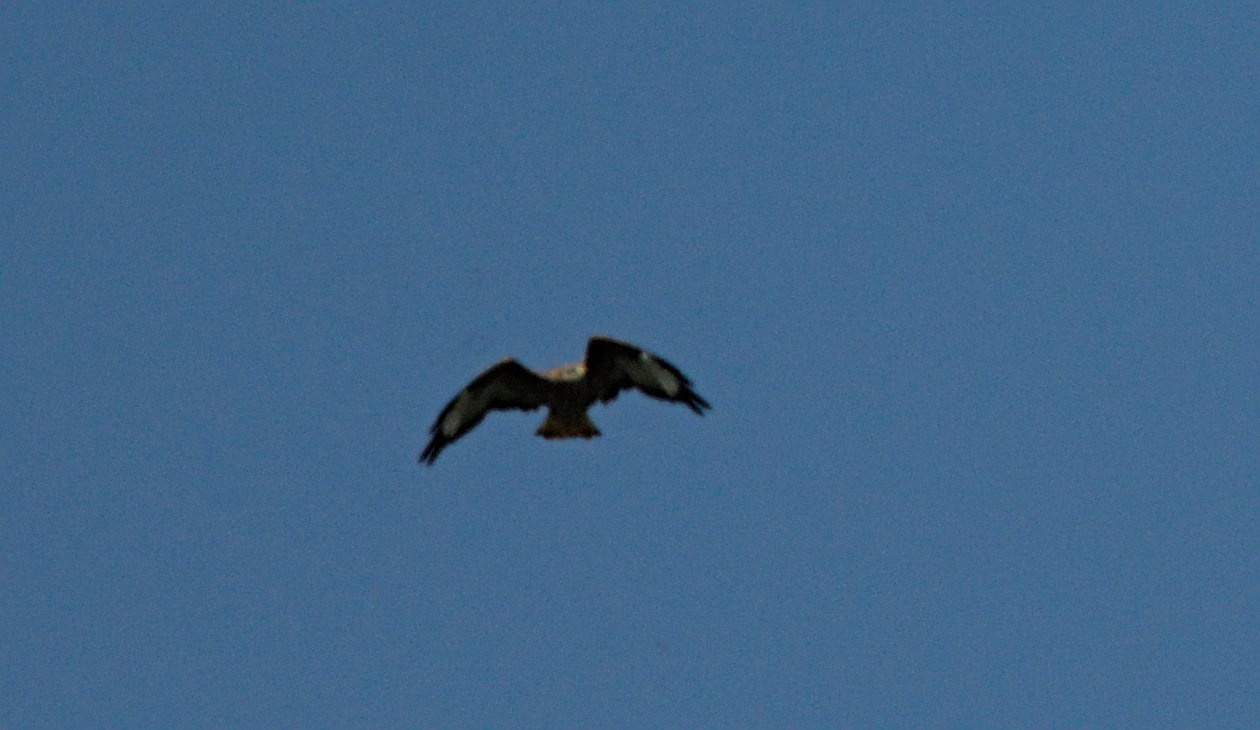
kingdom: Animalia
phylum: Chordata
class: Aves
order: Accipitriformes
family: Accipitridae
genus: Buteo
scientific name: Buteo buteo
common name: Common buzzard
